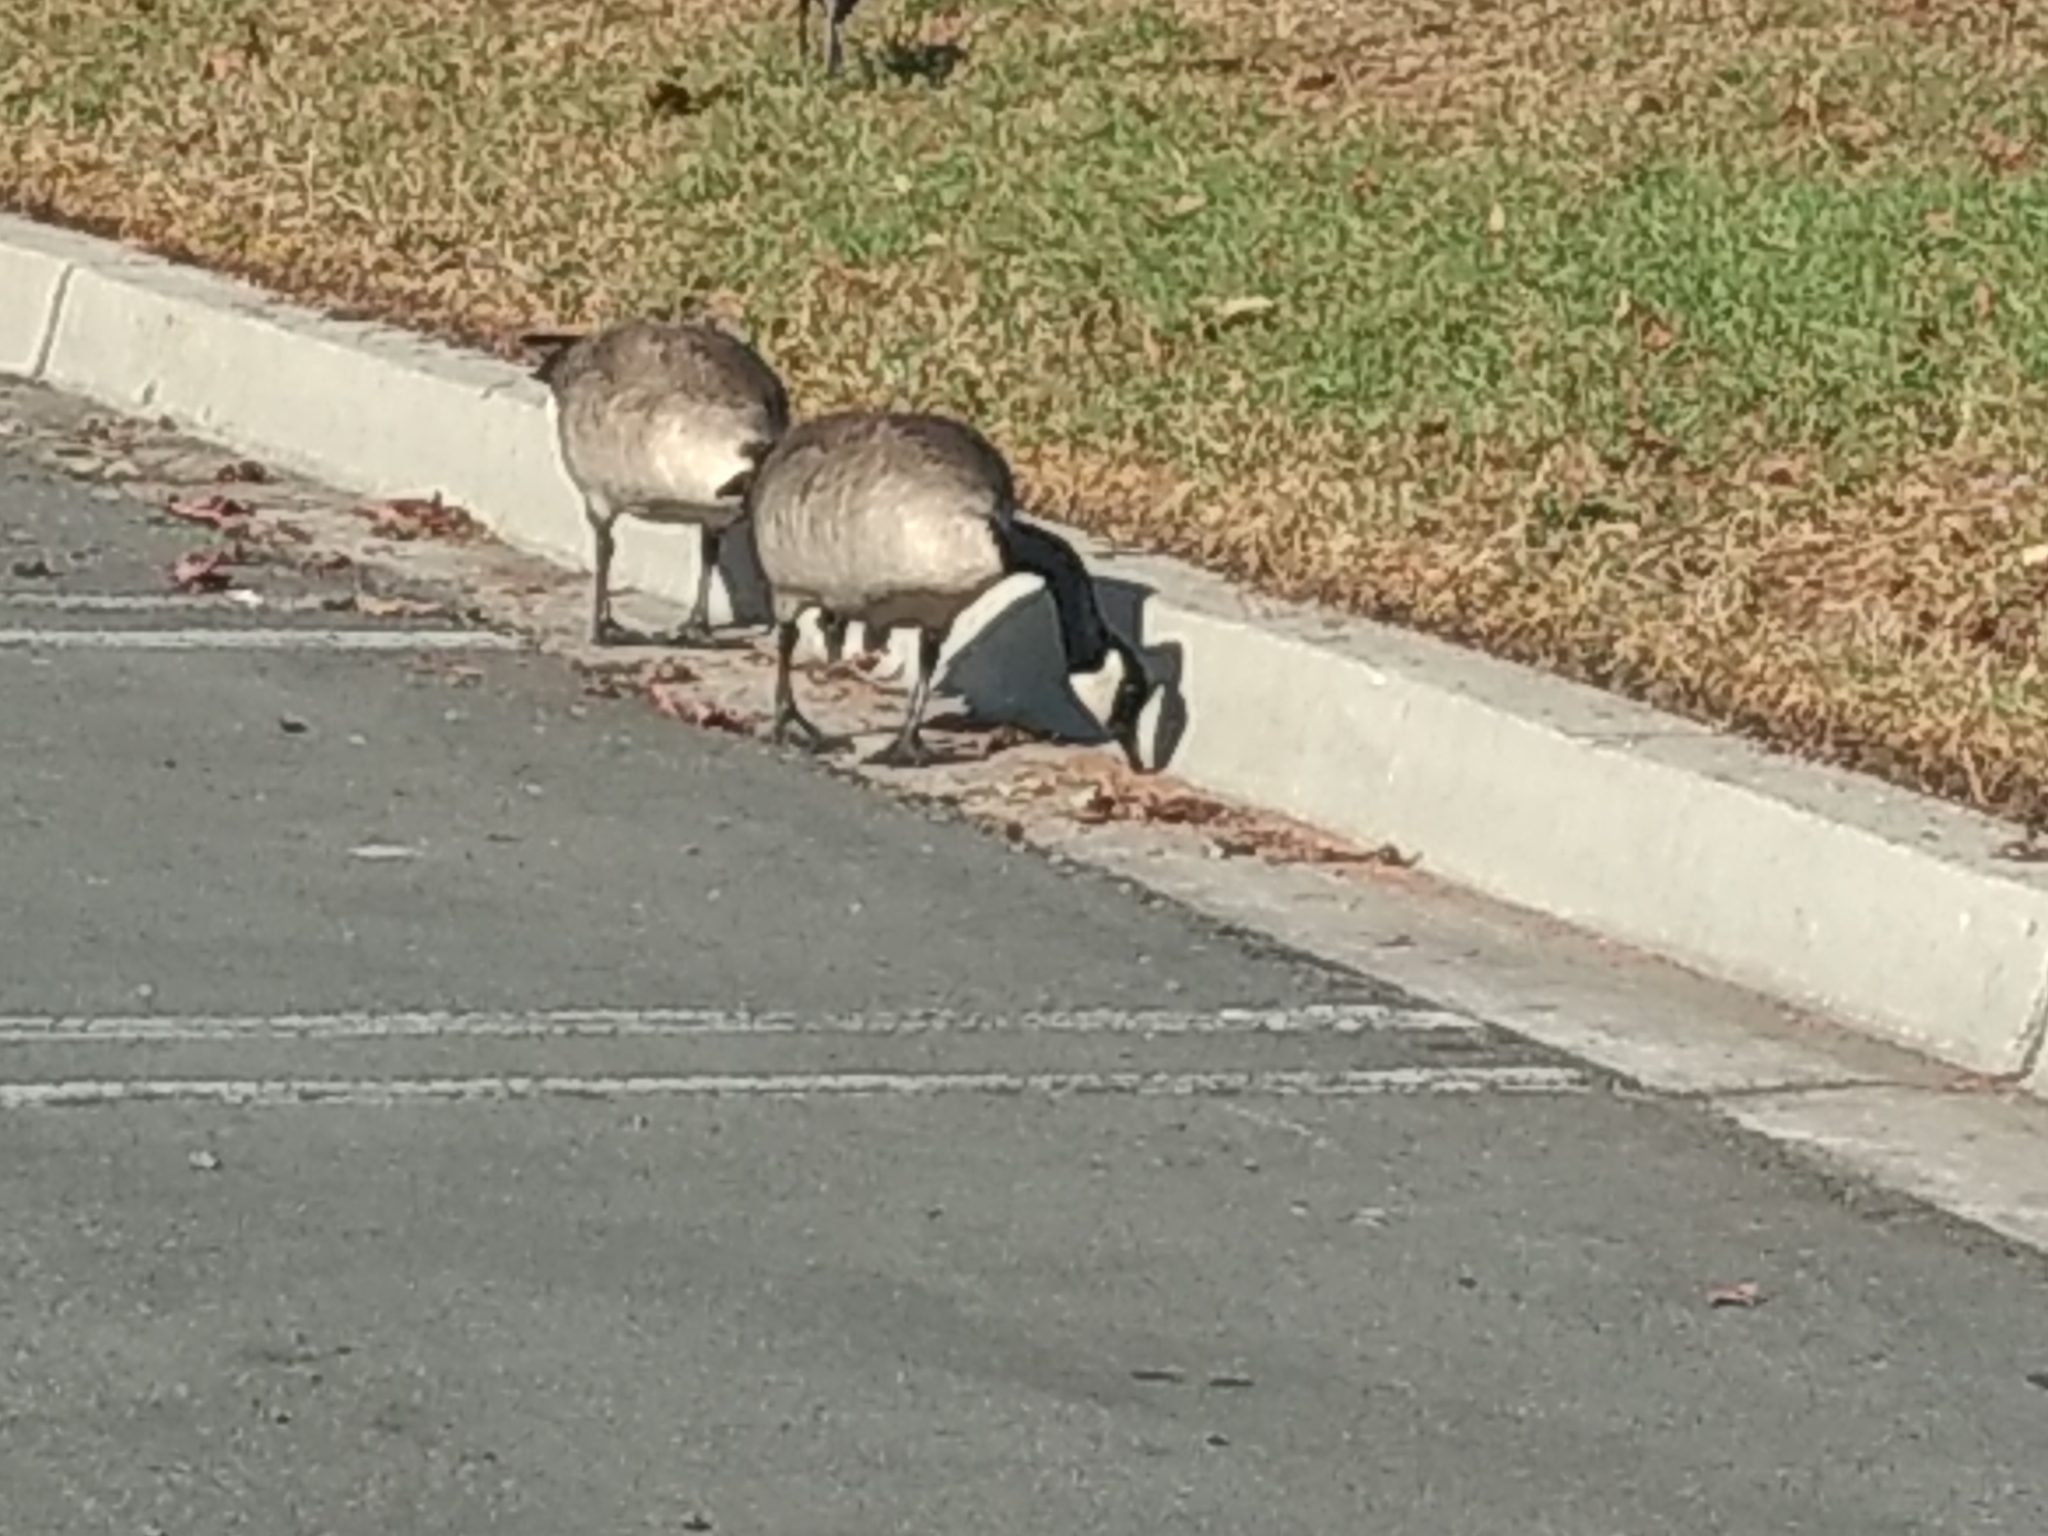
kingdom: Animalia
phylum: Chordata
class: Aves
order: Anseriformes
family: Anatidae
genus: Branta
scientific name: Branta canadensis
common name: Canada goose
